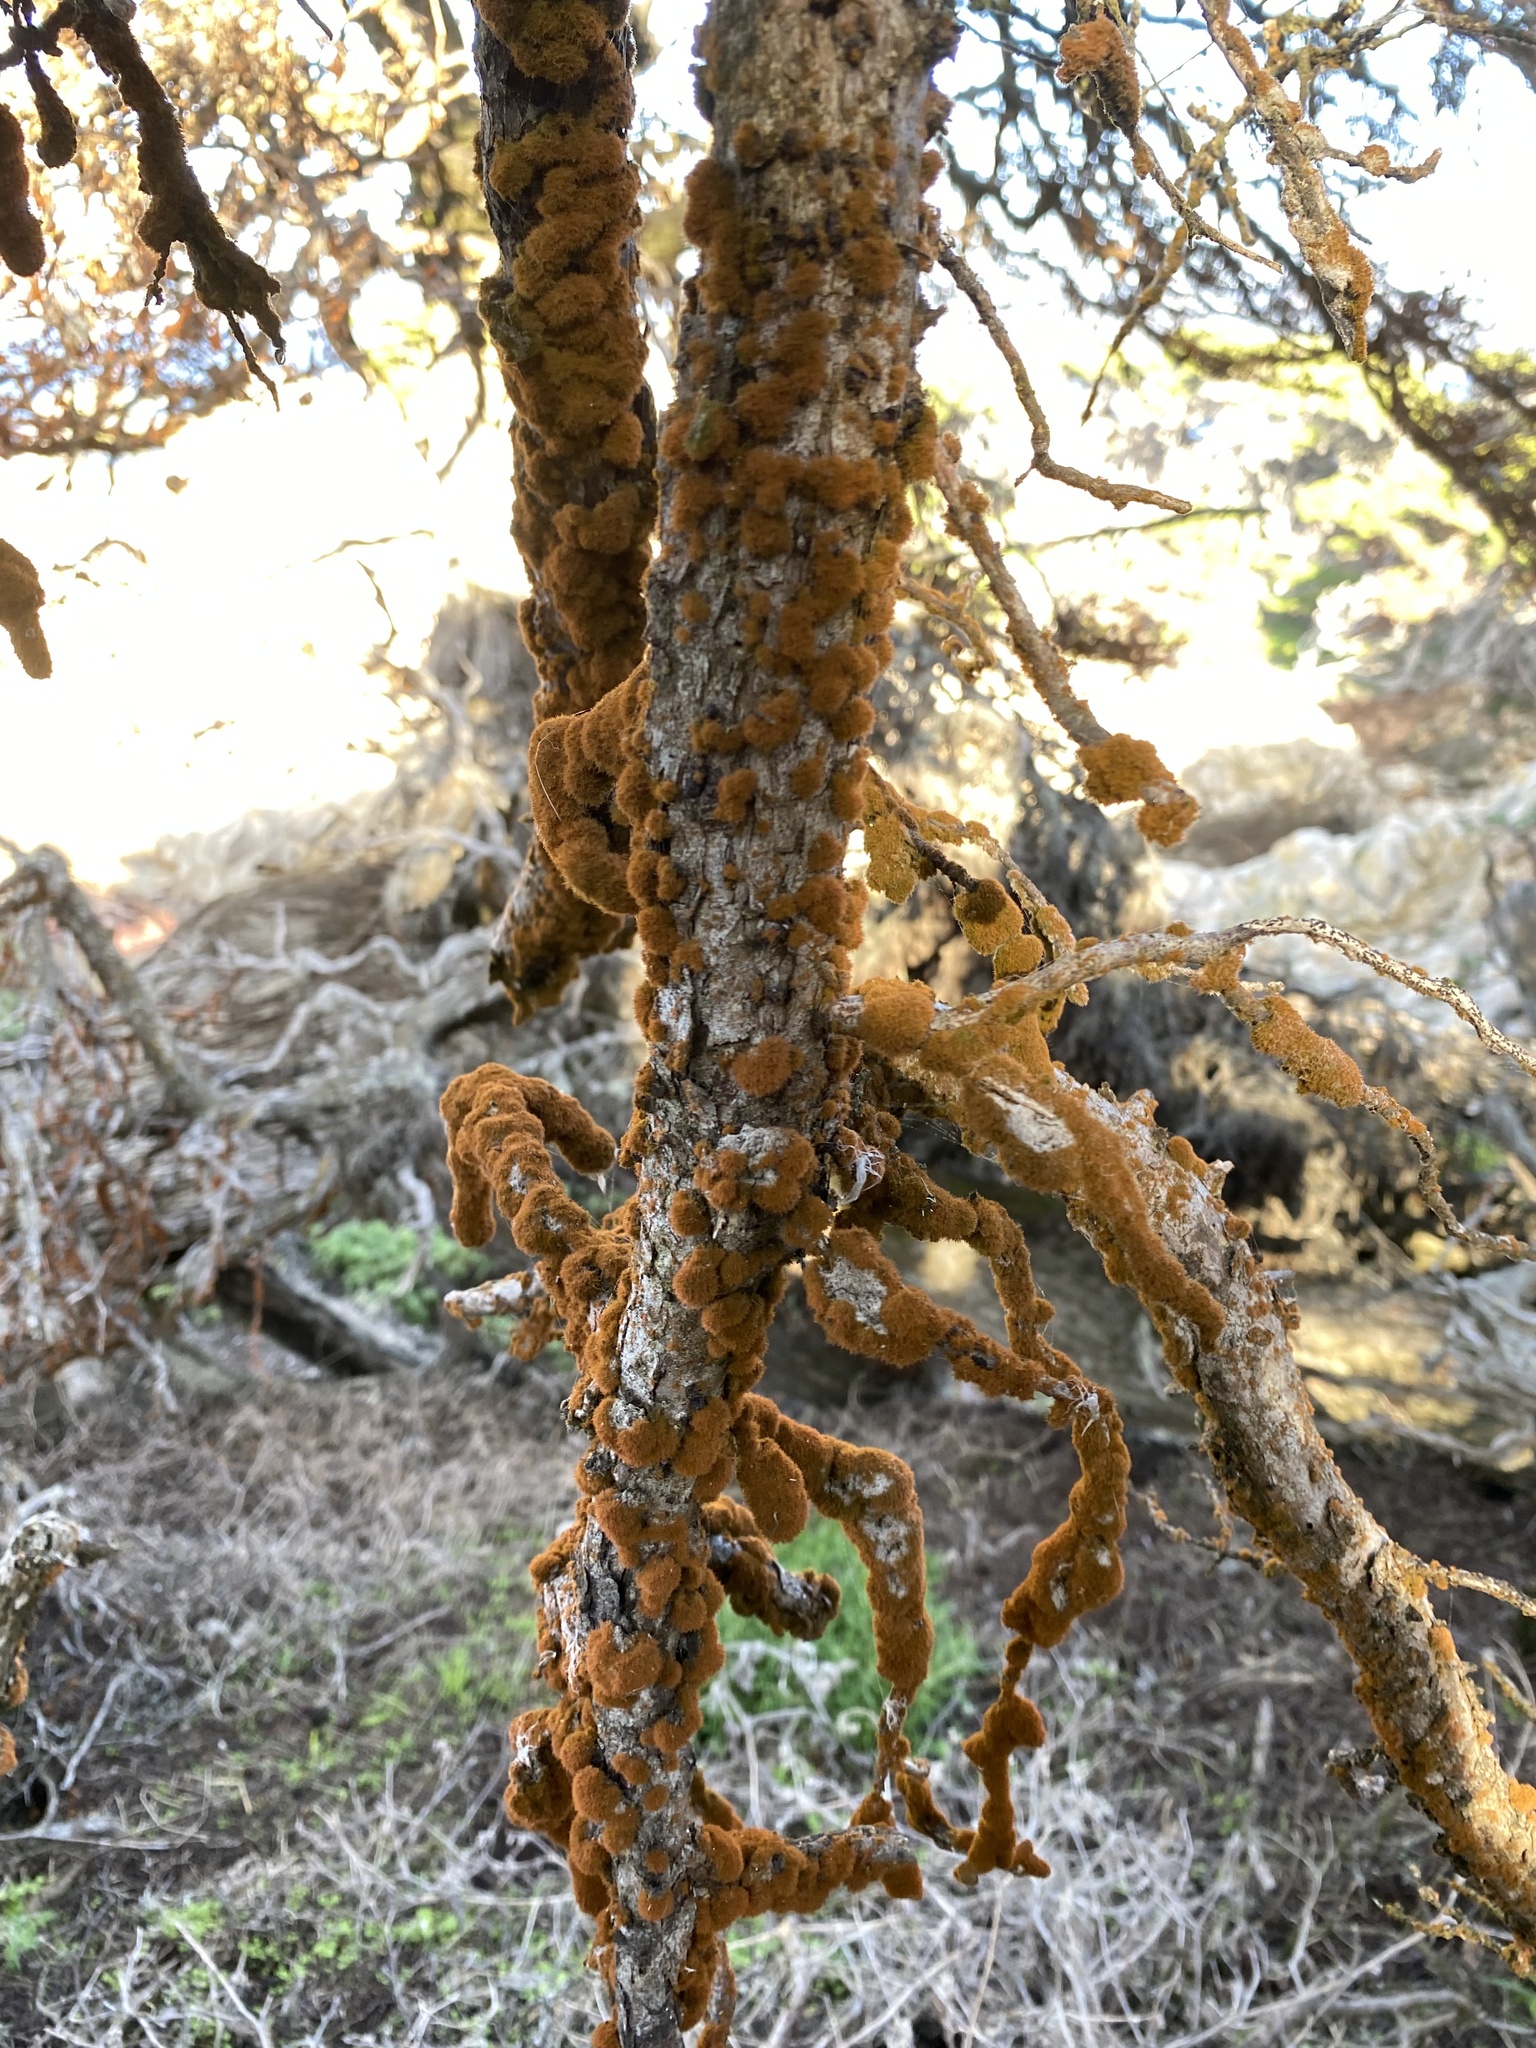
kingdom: Plantae
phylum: Chlorophyta
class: Ulvophyceae
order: Trentepohliales
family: Trentepohliaceae
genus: Trentepohlia
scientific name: Trentepohlia aurea
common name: Orange rock hair
